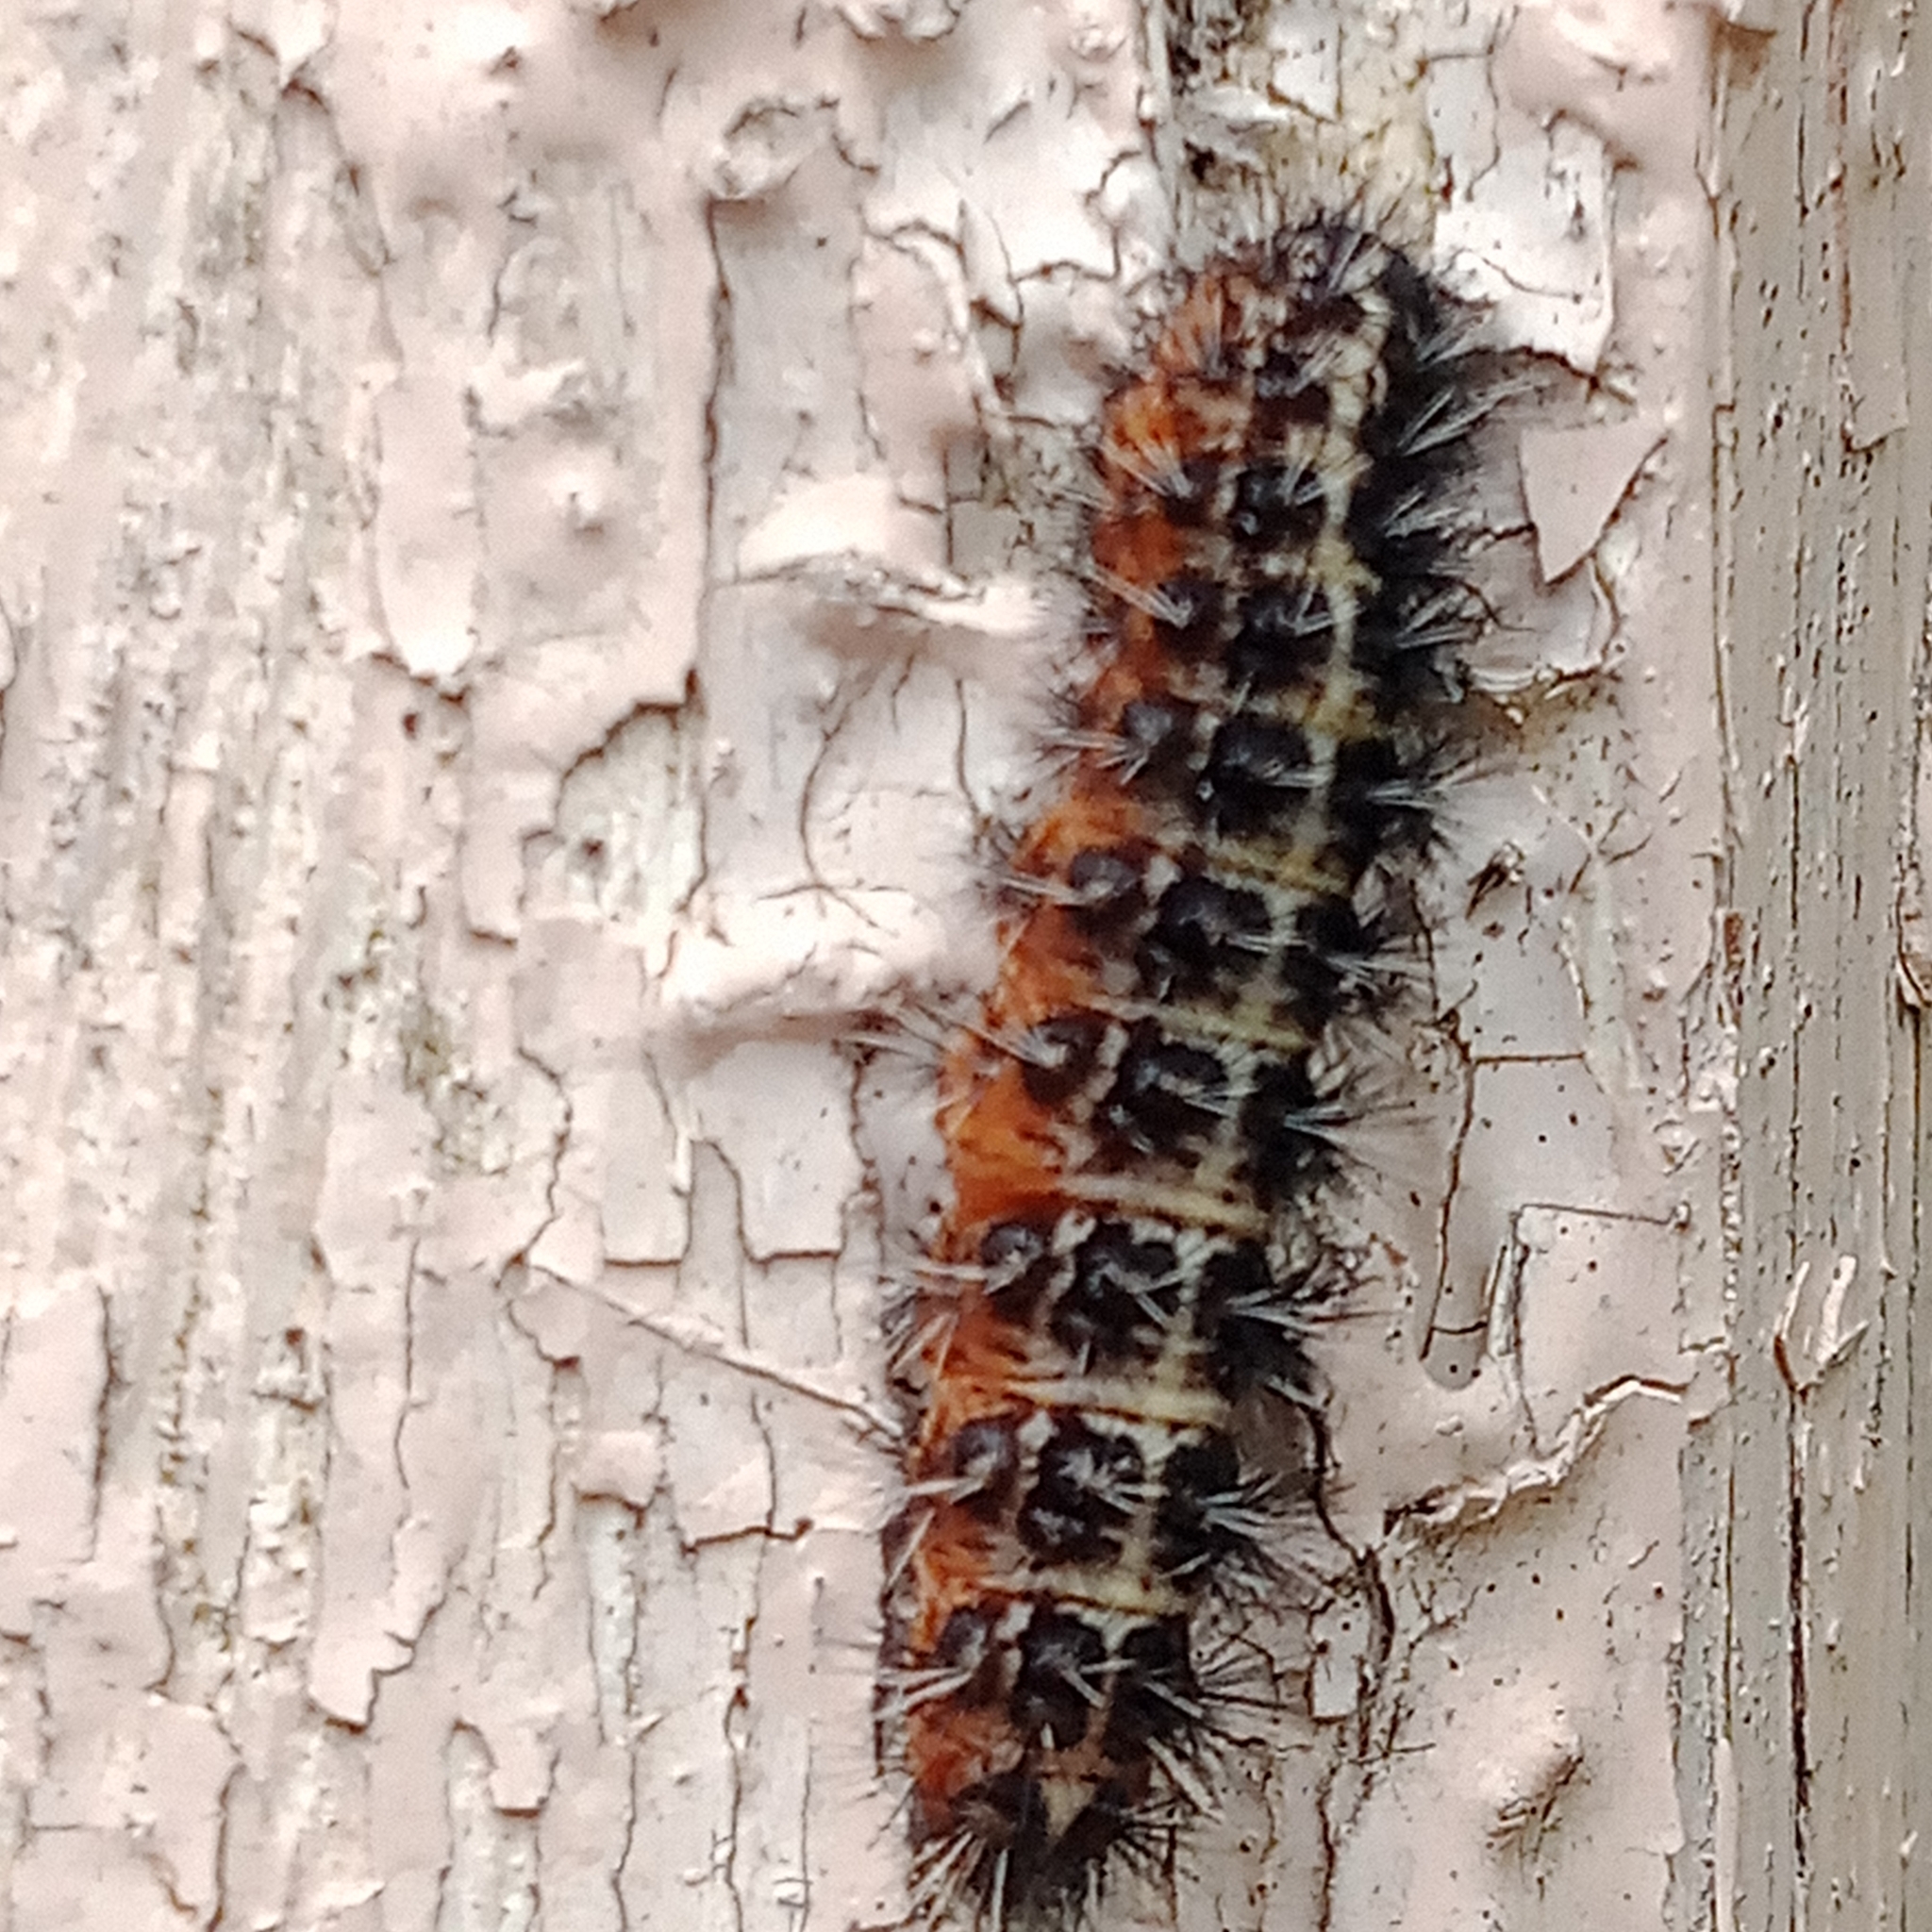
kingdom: Animalia
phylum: Arthropoda
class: Insecta
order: Lepidoptera
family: Erebidae
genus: Coscinia
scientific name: Coscinia cribraria
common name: Speckled footman
